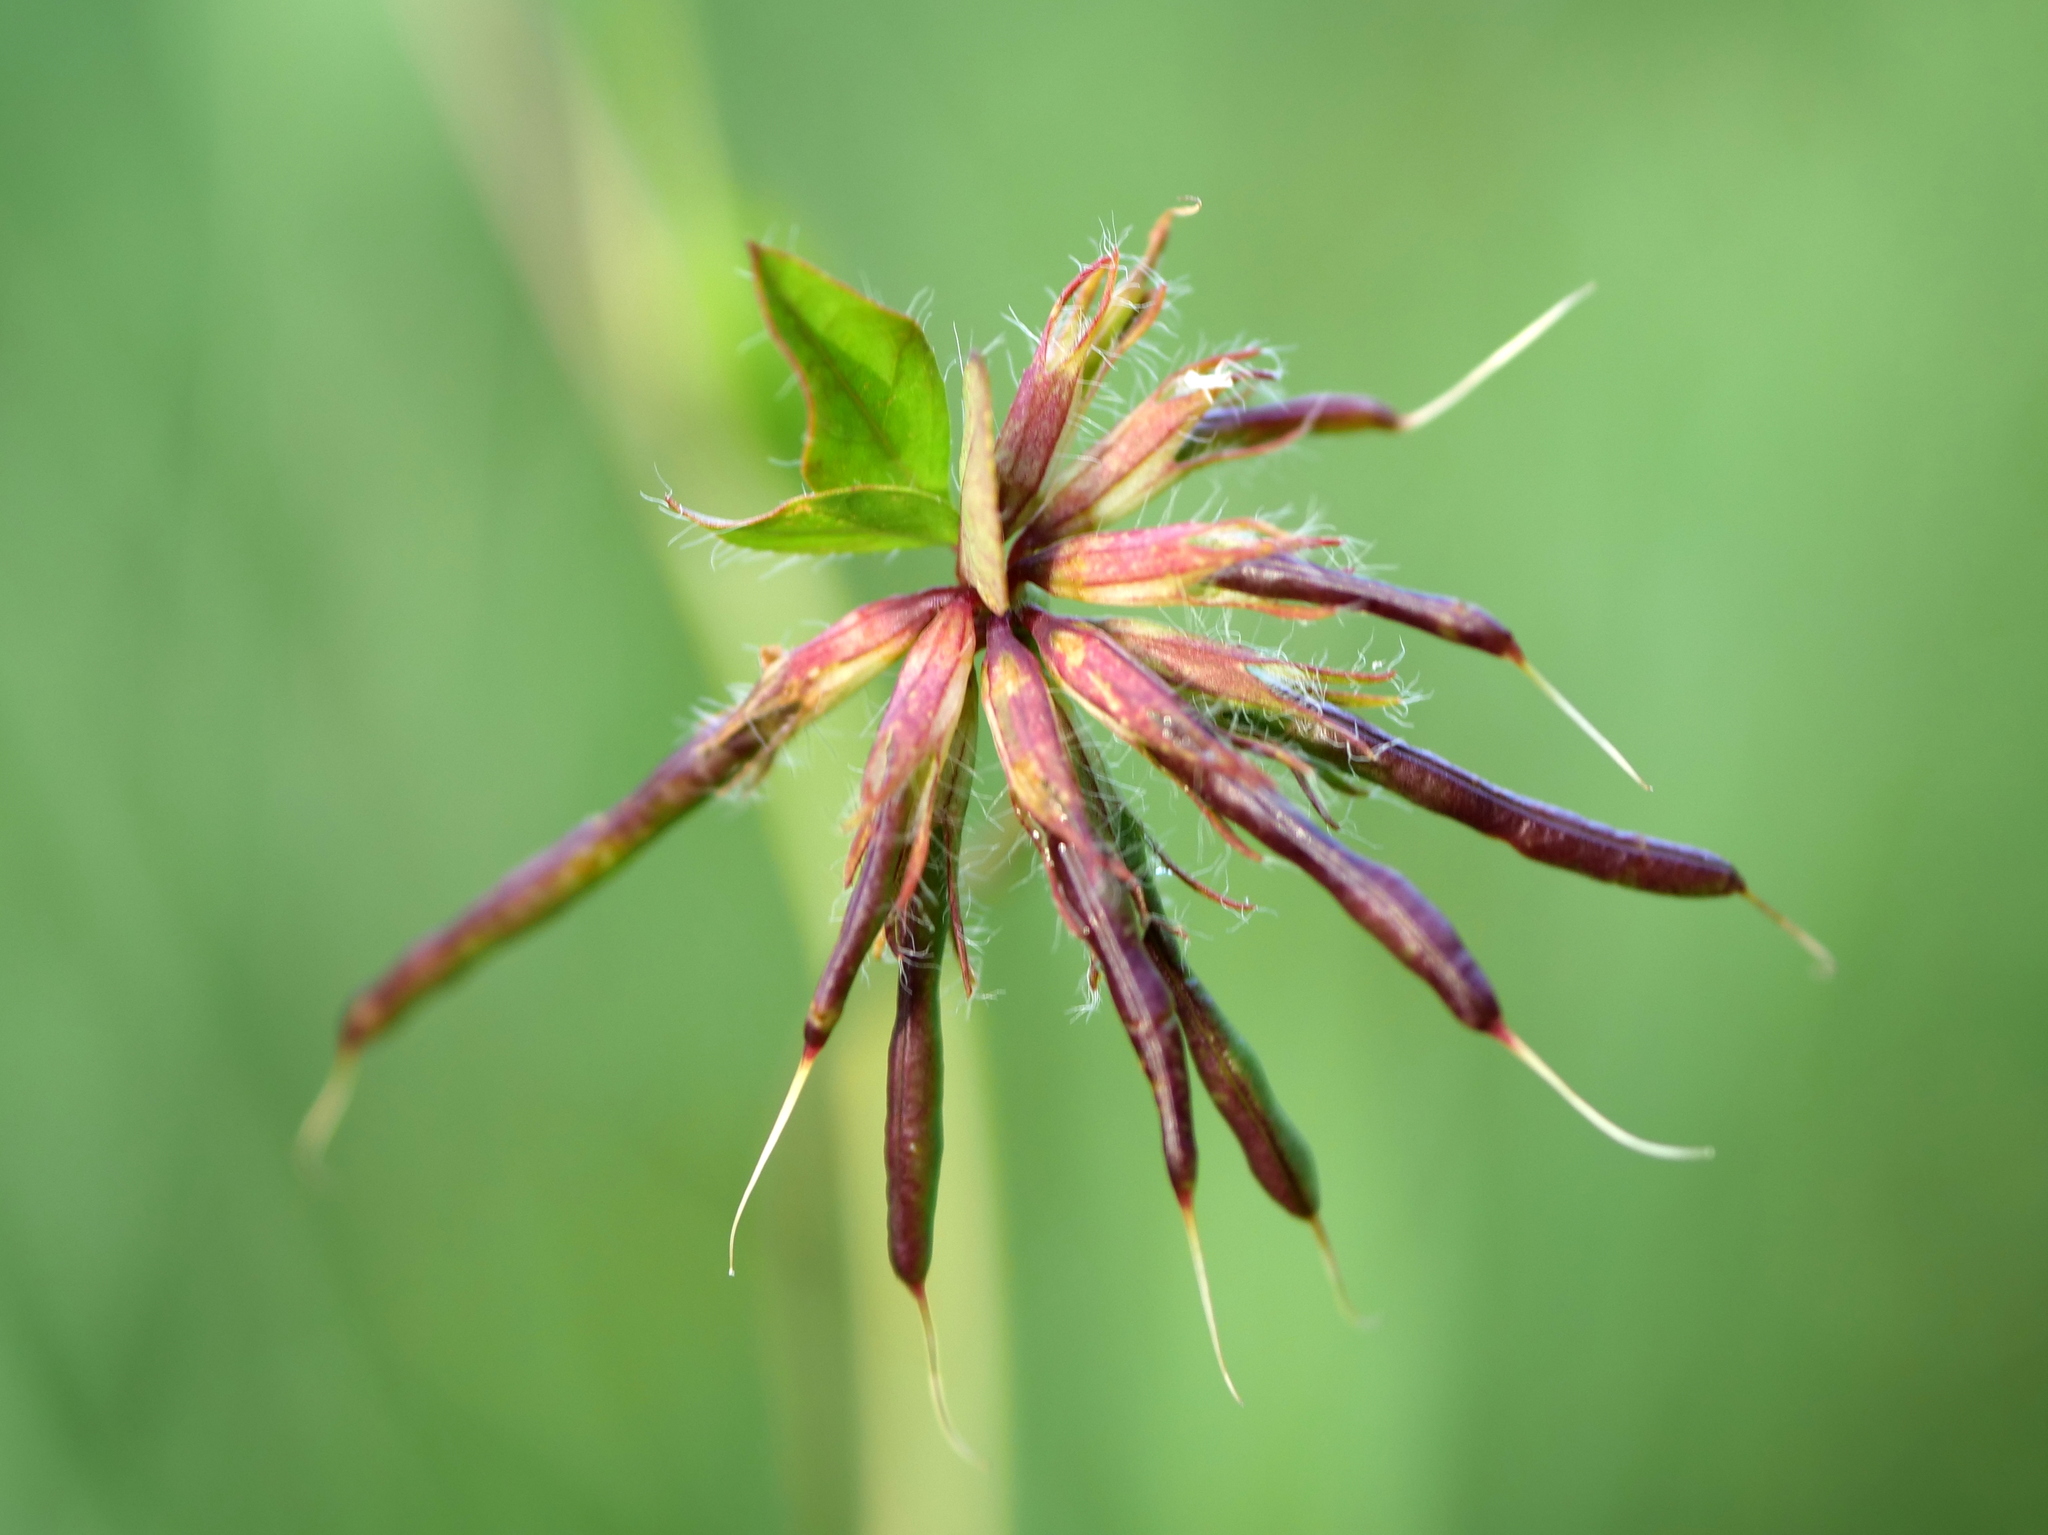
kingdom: Plantae
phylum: Tracheophyta
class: Magnoliopsida
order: Fabales
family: Fabaceae
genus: Lotus
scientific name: Lotus pedunculatus
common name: Greater birdsfoot-trefoil
